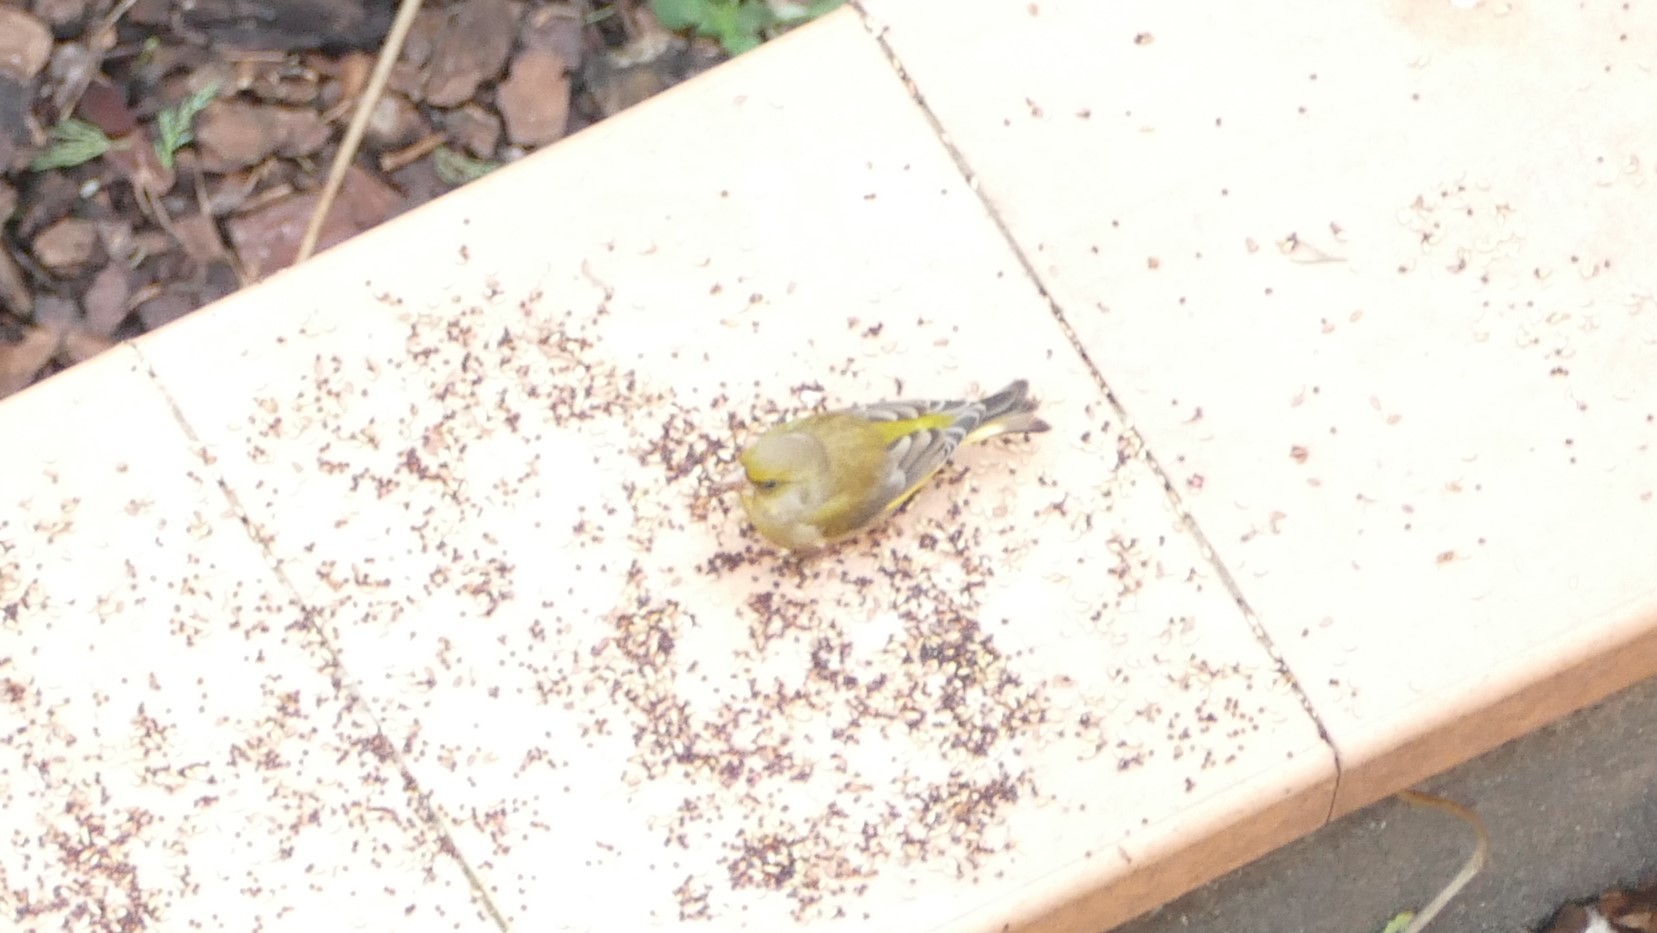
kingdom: Plantae
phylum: Tracheophyta
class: Liliopsida
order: Poales
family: Poaceae
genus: Chloris
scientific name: Chloris chloris
